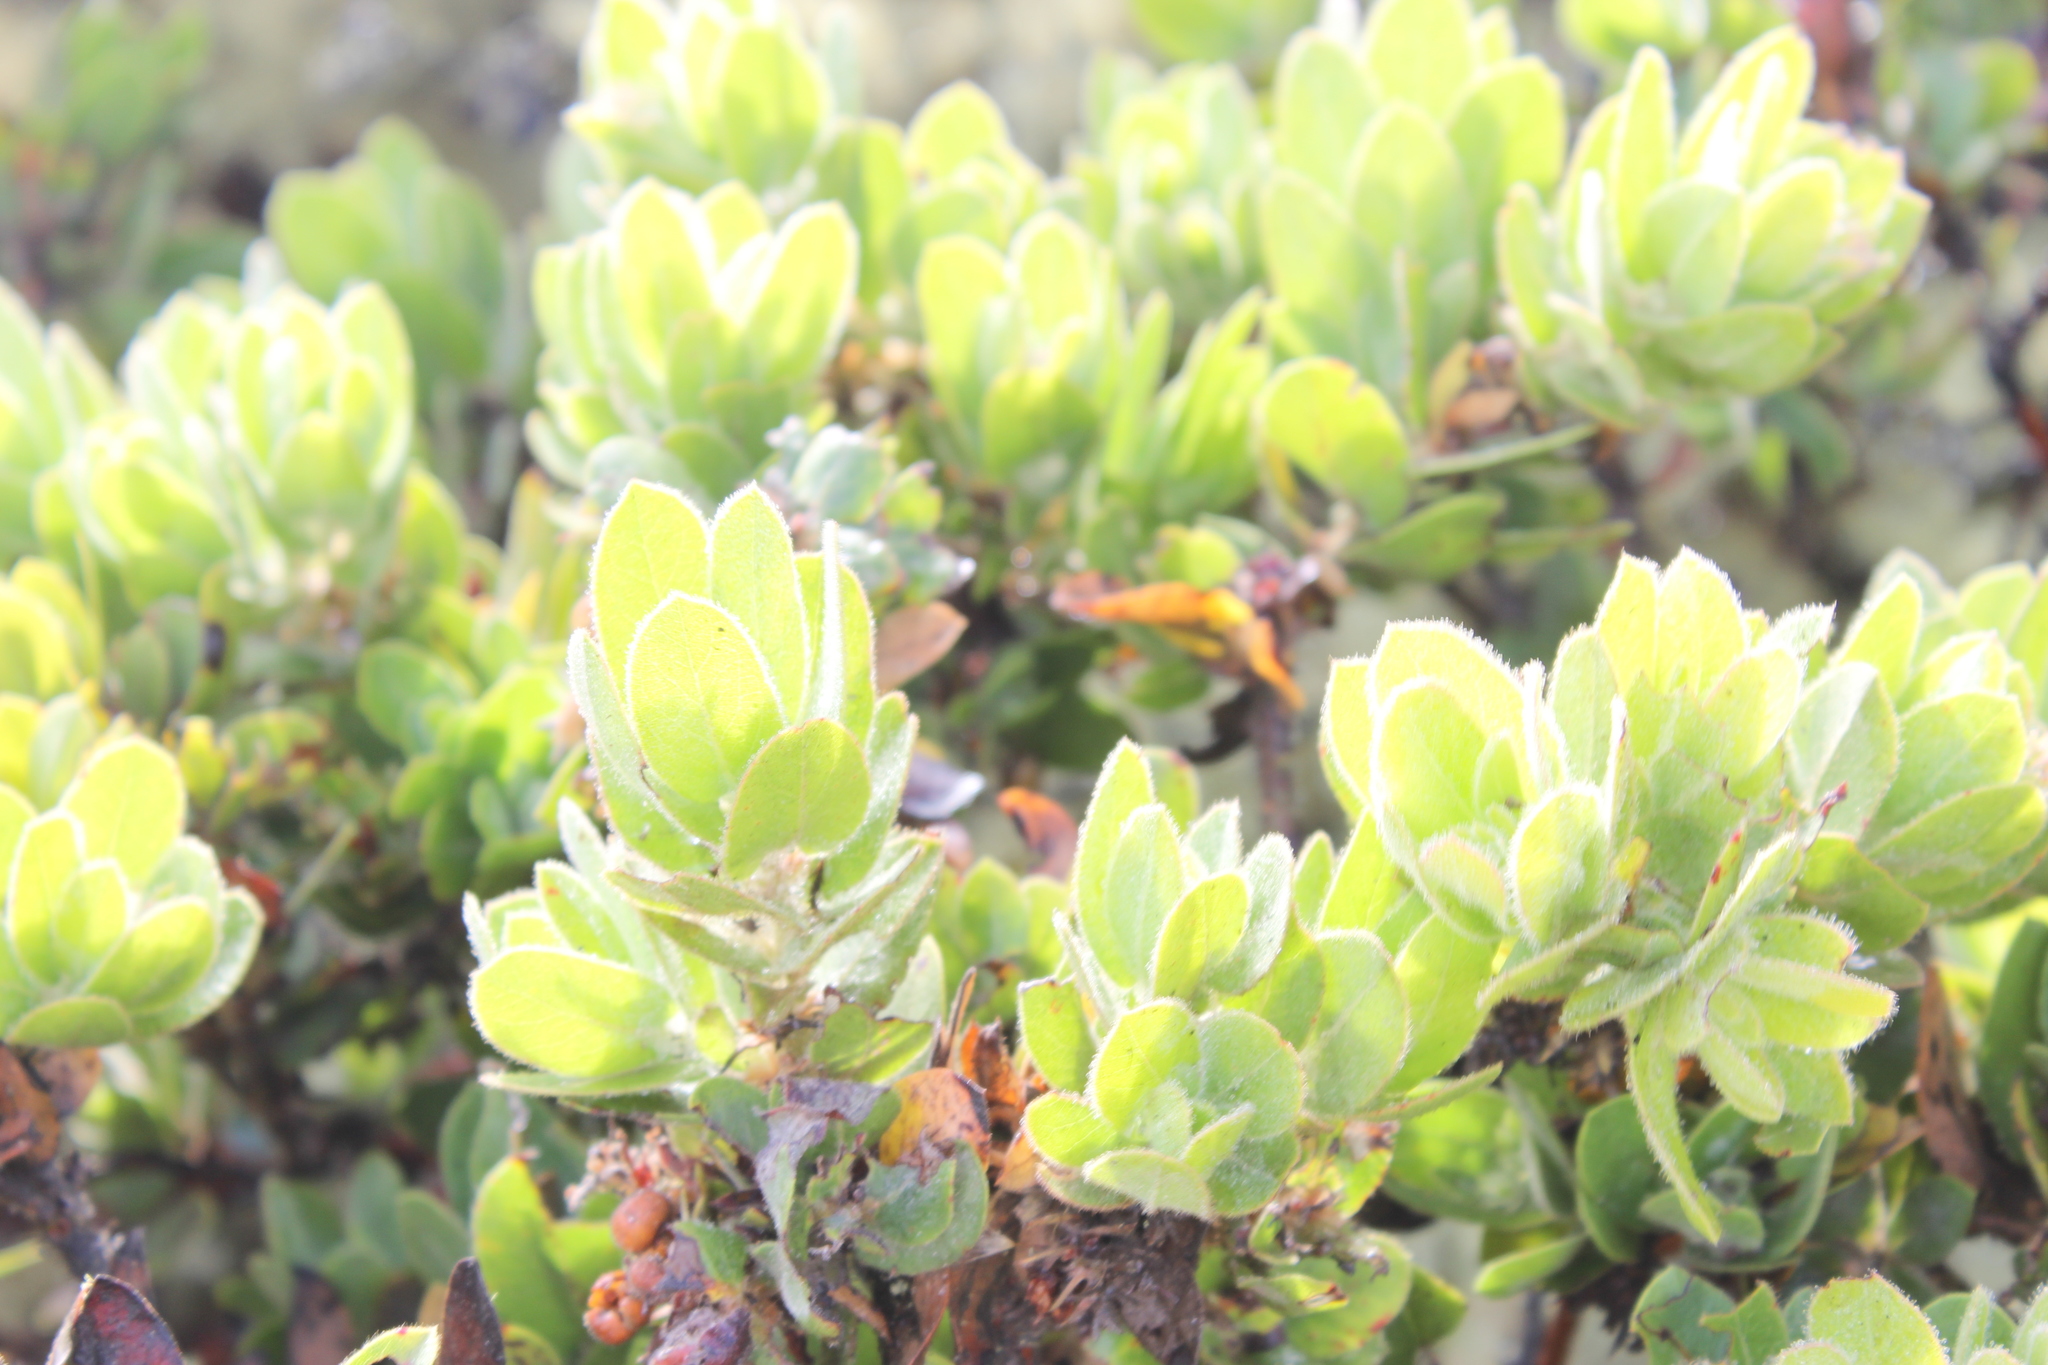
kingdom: Plantae
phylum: Tracheophyta
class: Magnoliopsida
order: Ericales
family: Ericaceae
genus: Arctostaphylos
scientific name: Arctostaphylos montaraensis
